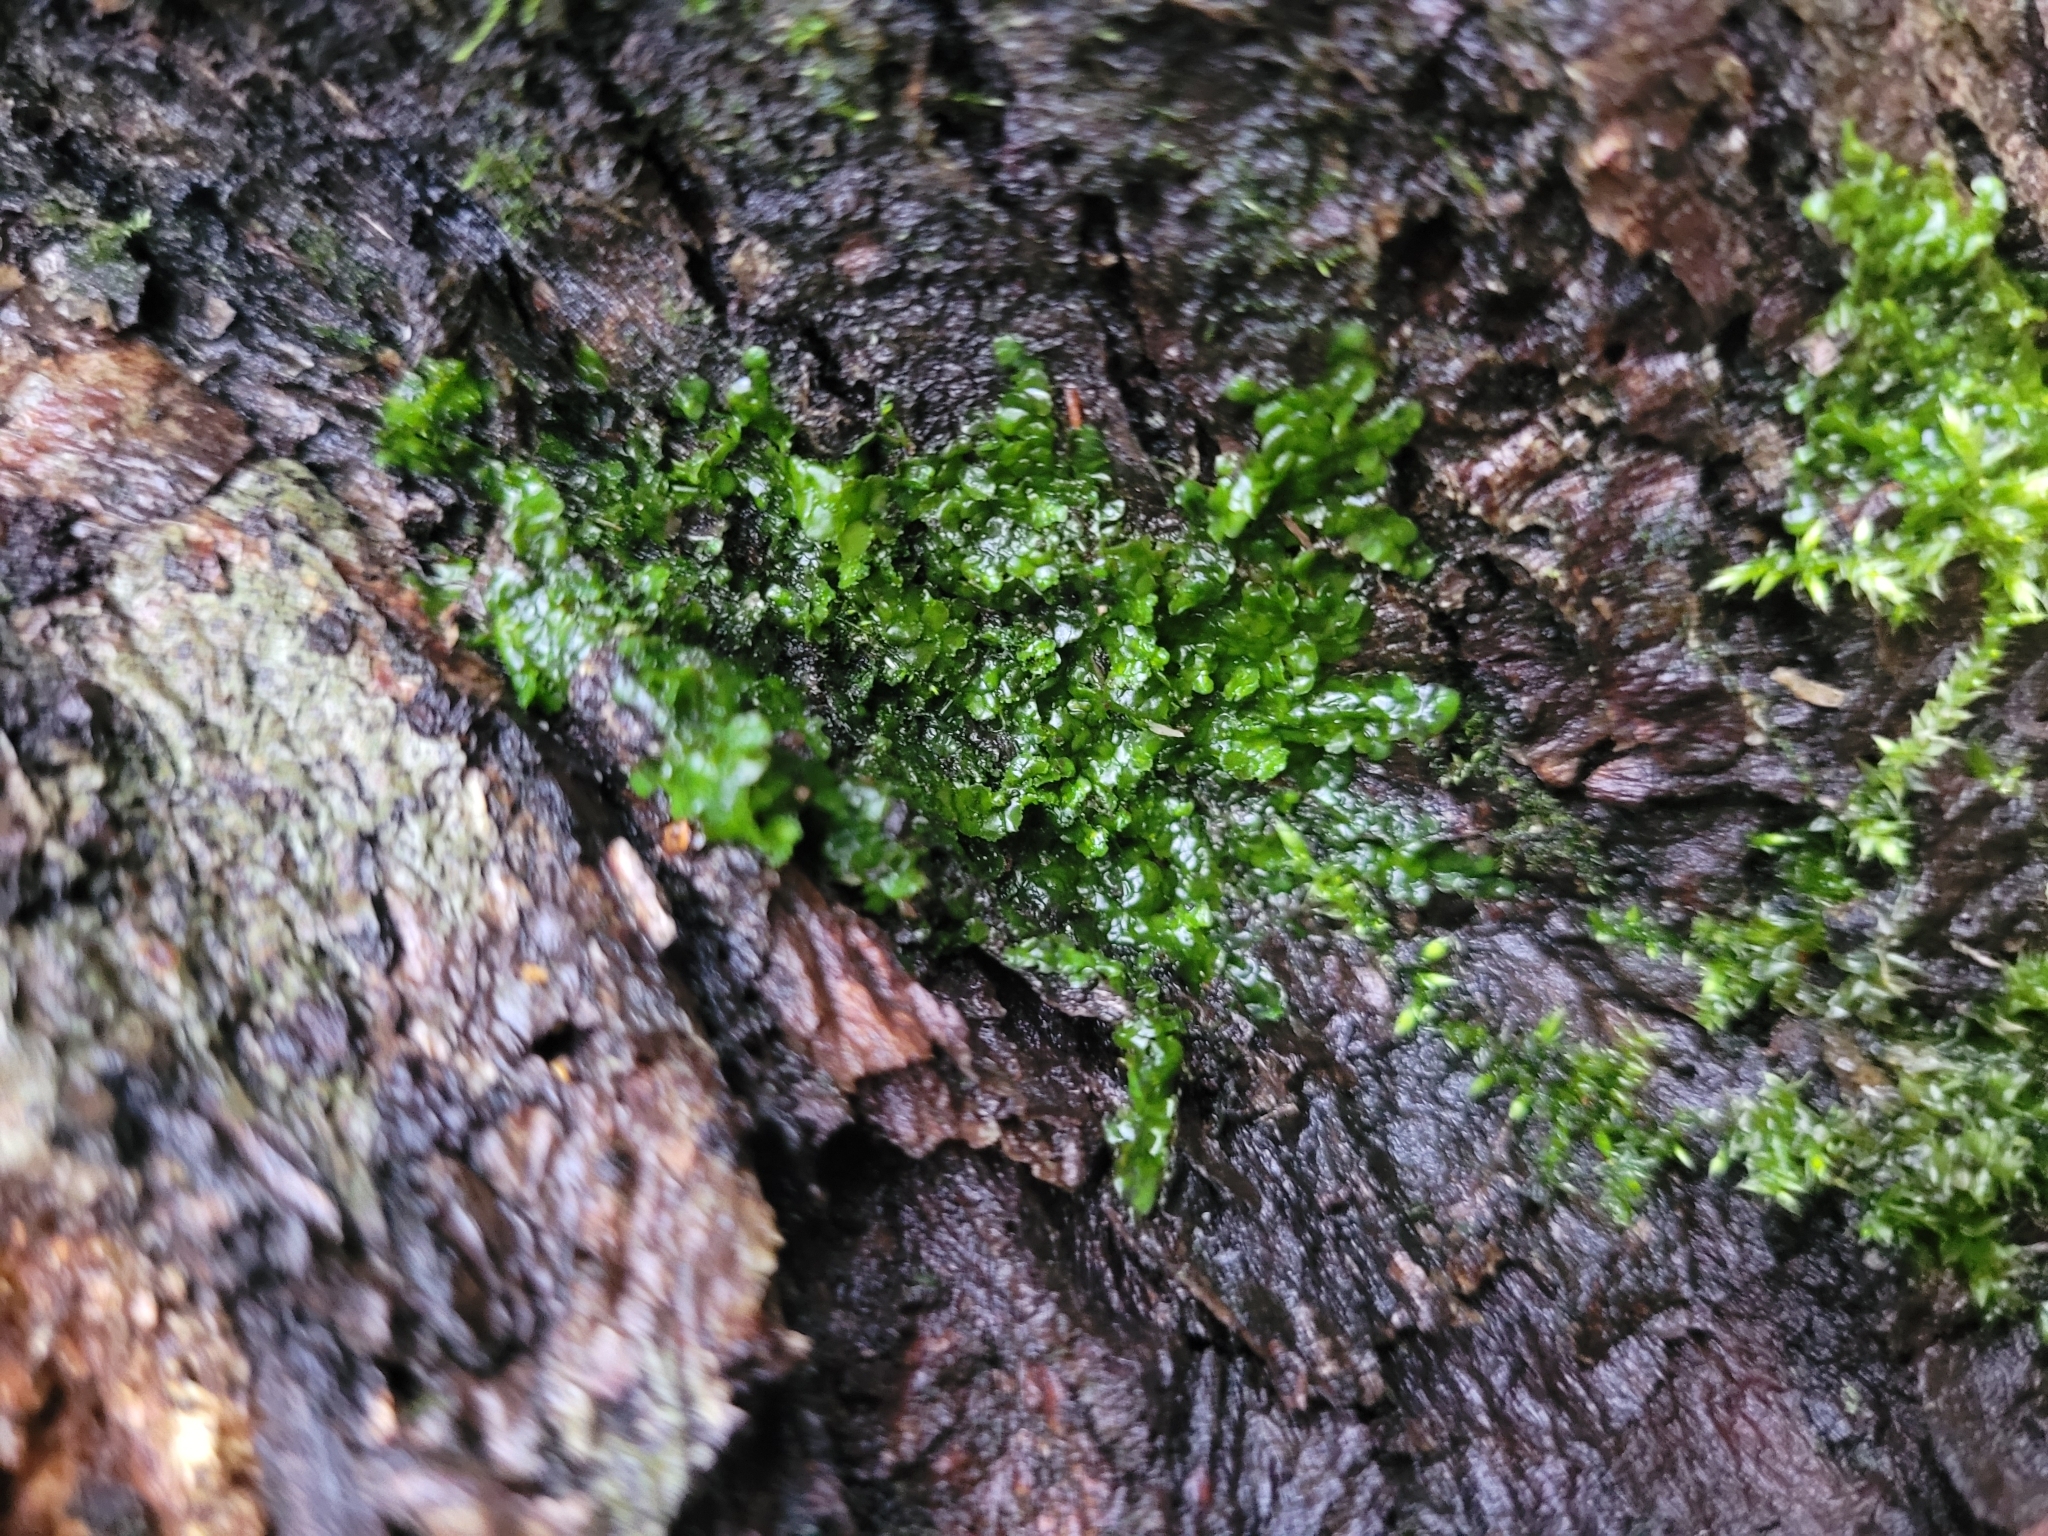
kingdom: Plantae
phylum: Marchantiophyta
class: Jungermanniopsida
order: Porellales
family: Radulaceae
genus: Radula
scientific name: Radula complanata
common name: Flat-leaved scalewort
